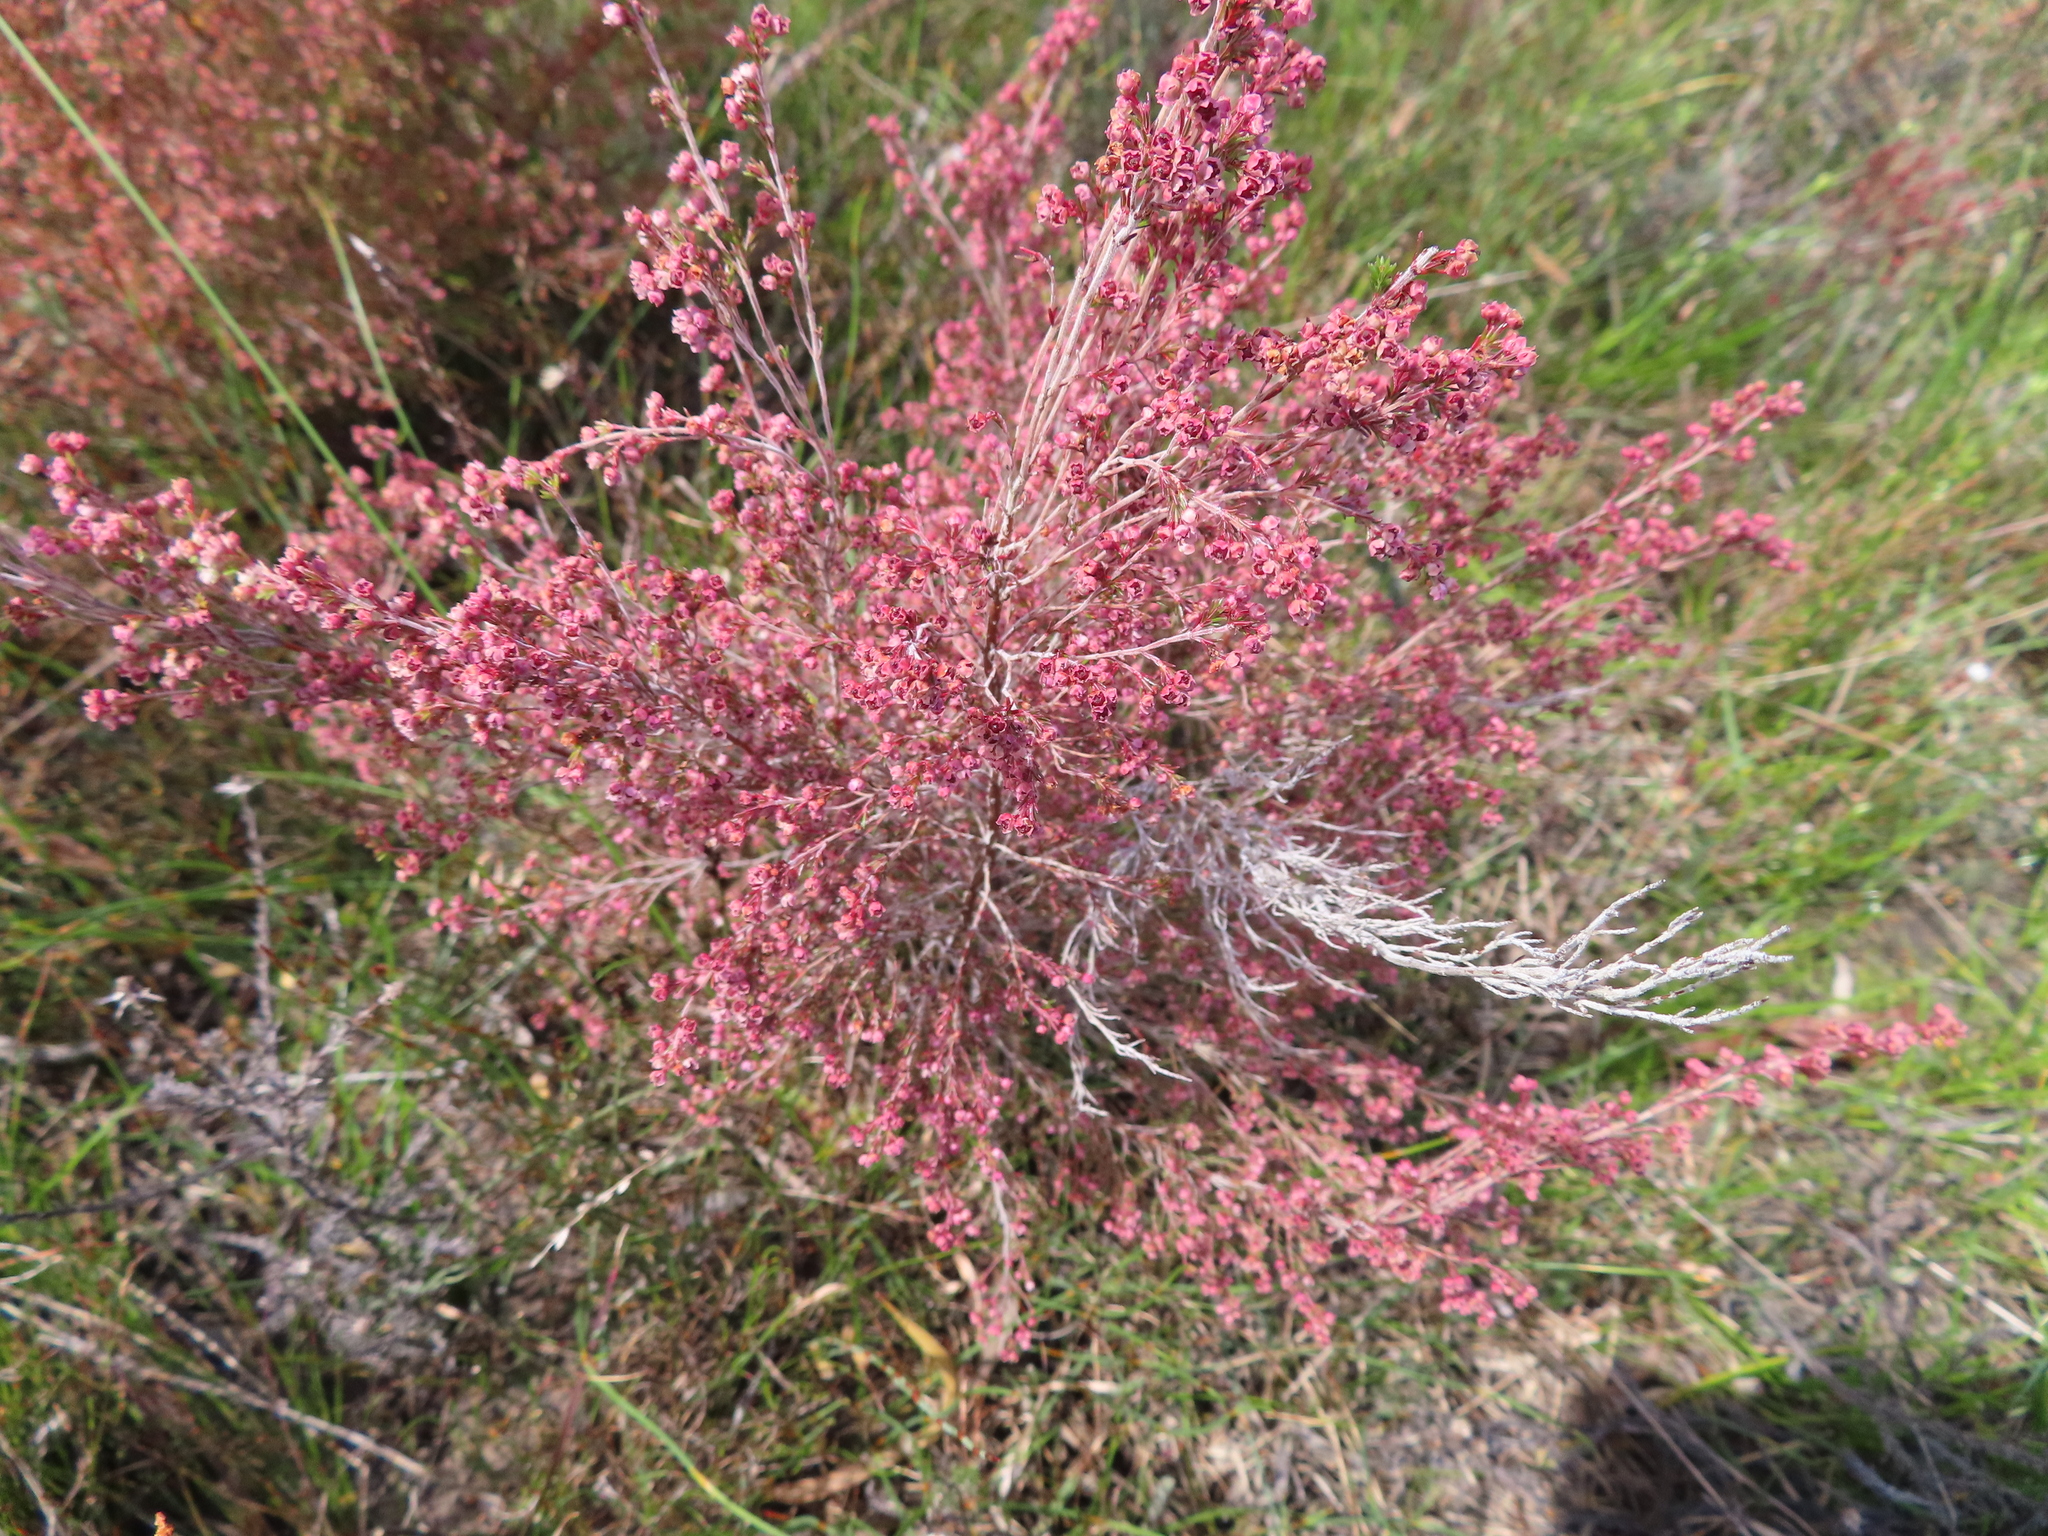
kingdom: Plantae
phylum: Tracheophyta
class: Magnoliopsida
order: Ericales
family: Ericaceae
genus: Erica
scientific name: Erica flexistyla
